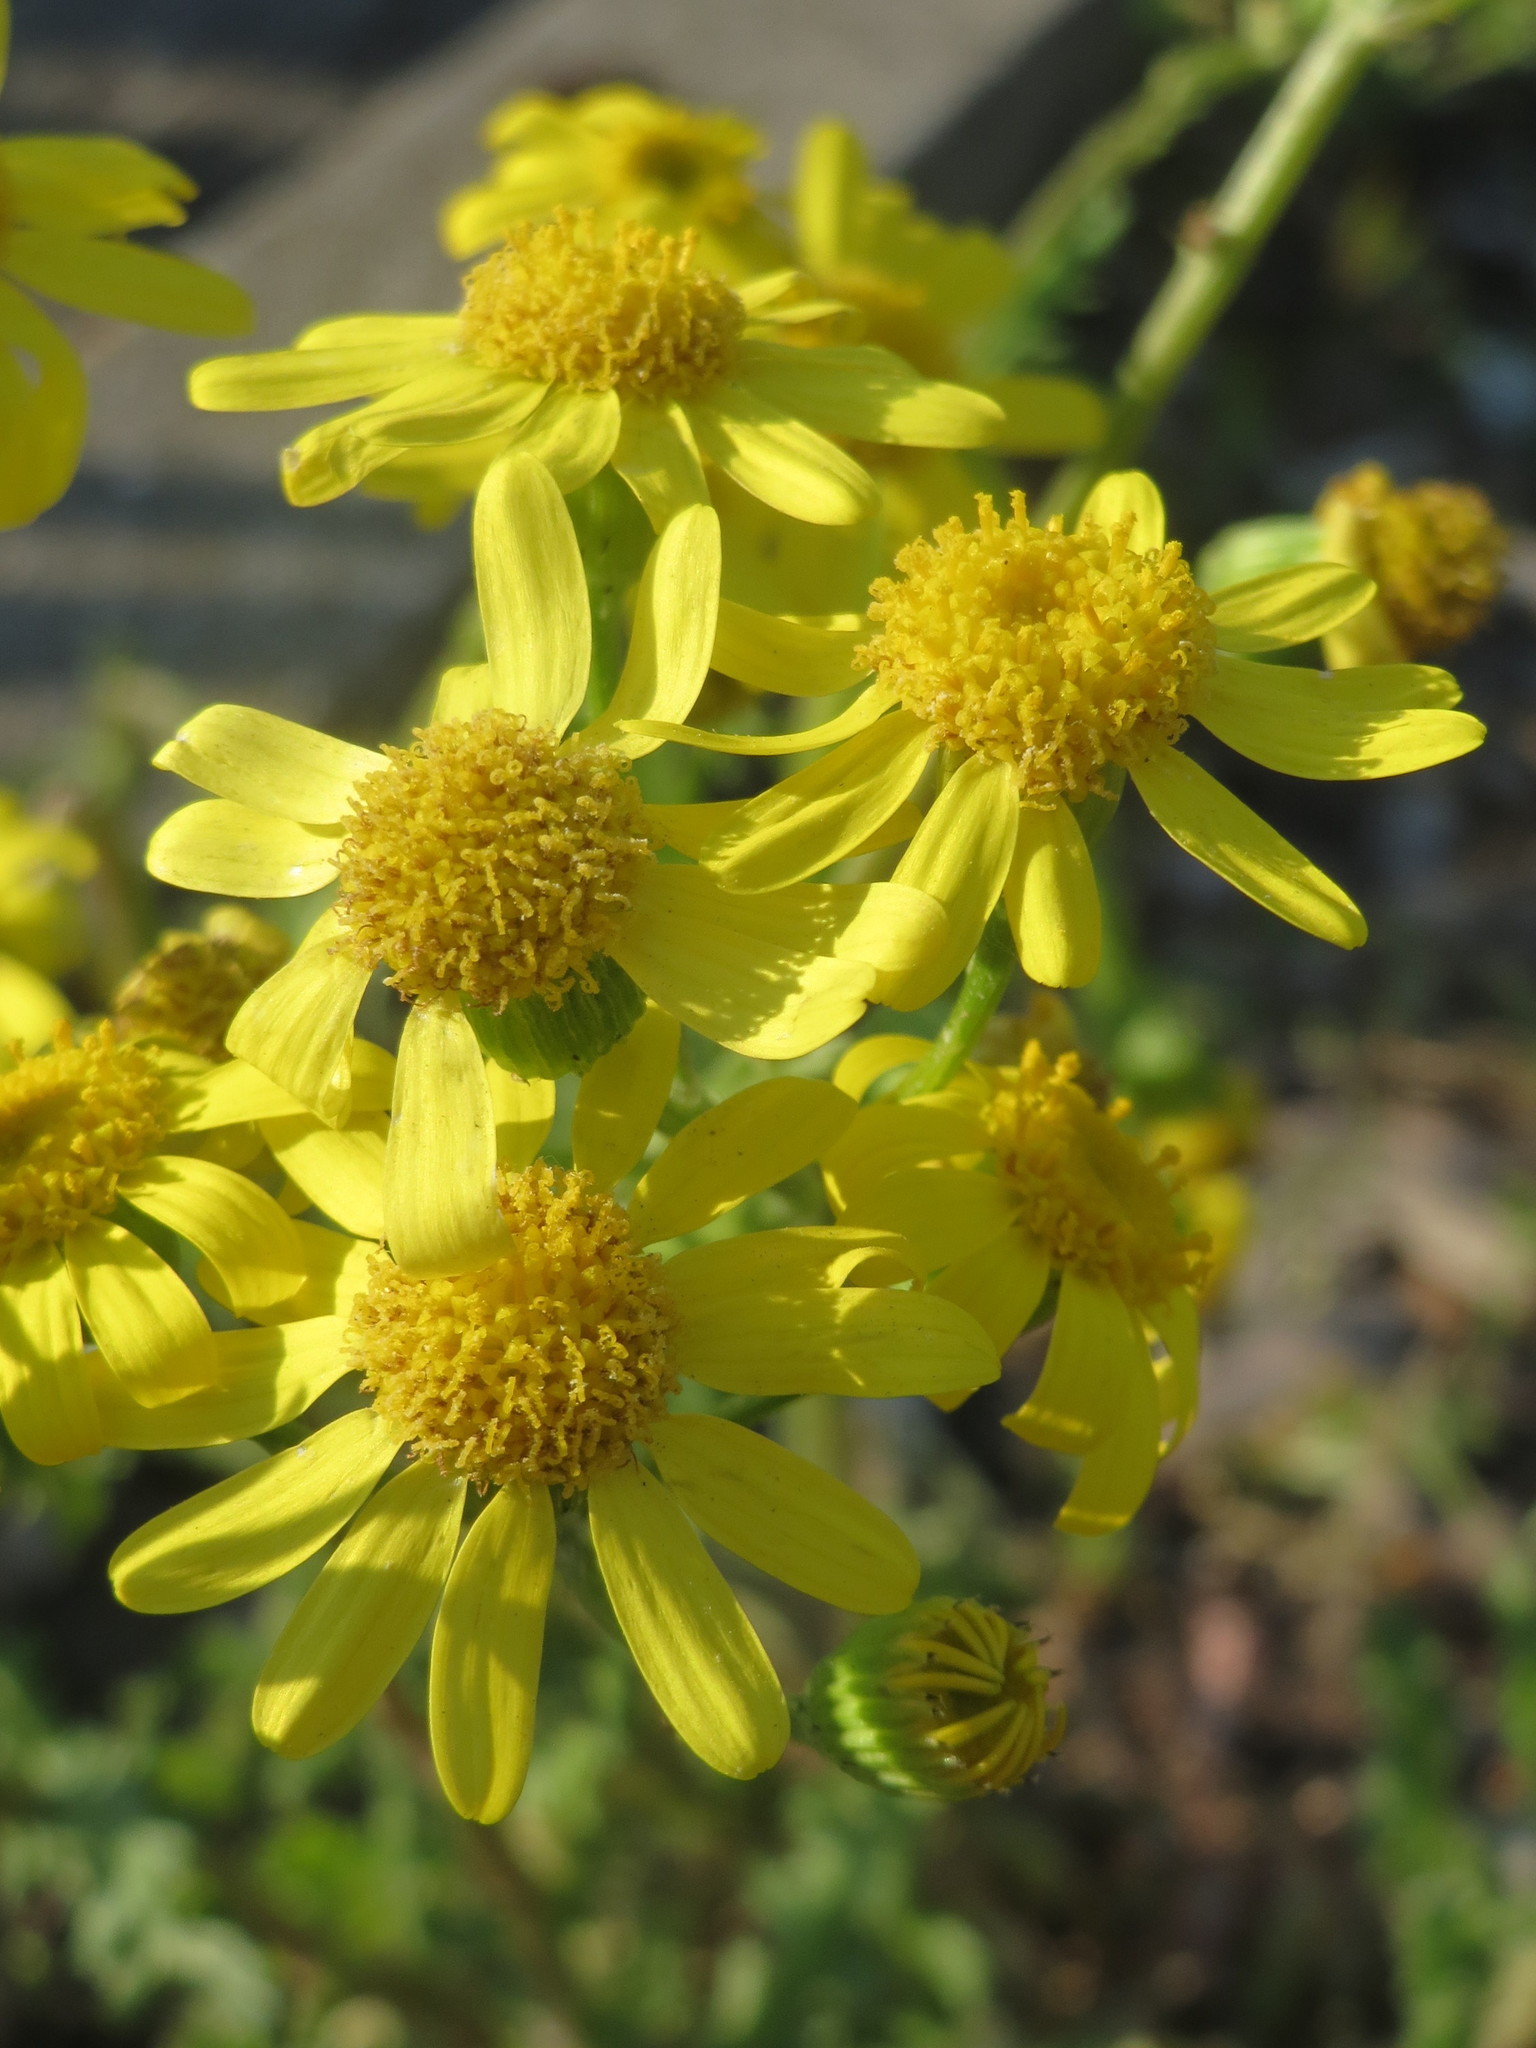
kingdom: Plantae
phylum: Tracheophyta
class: Magnoliopsida
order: Asterales
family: Asteraceae
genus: Senecio
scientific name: Senecio vernalis
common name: Eastern groundsel
